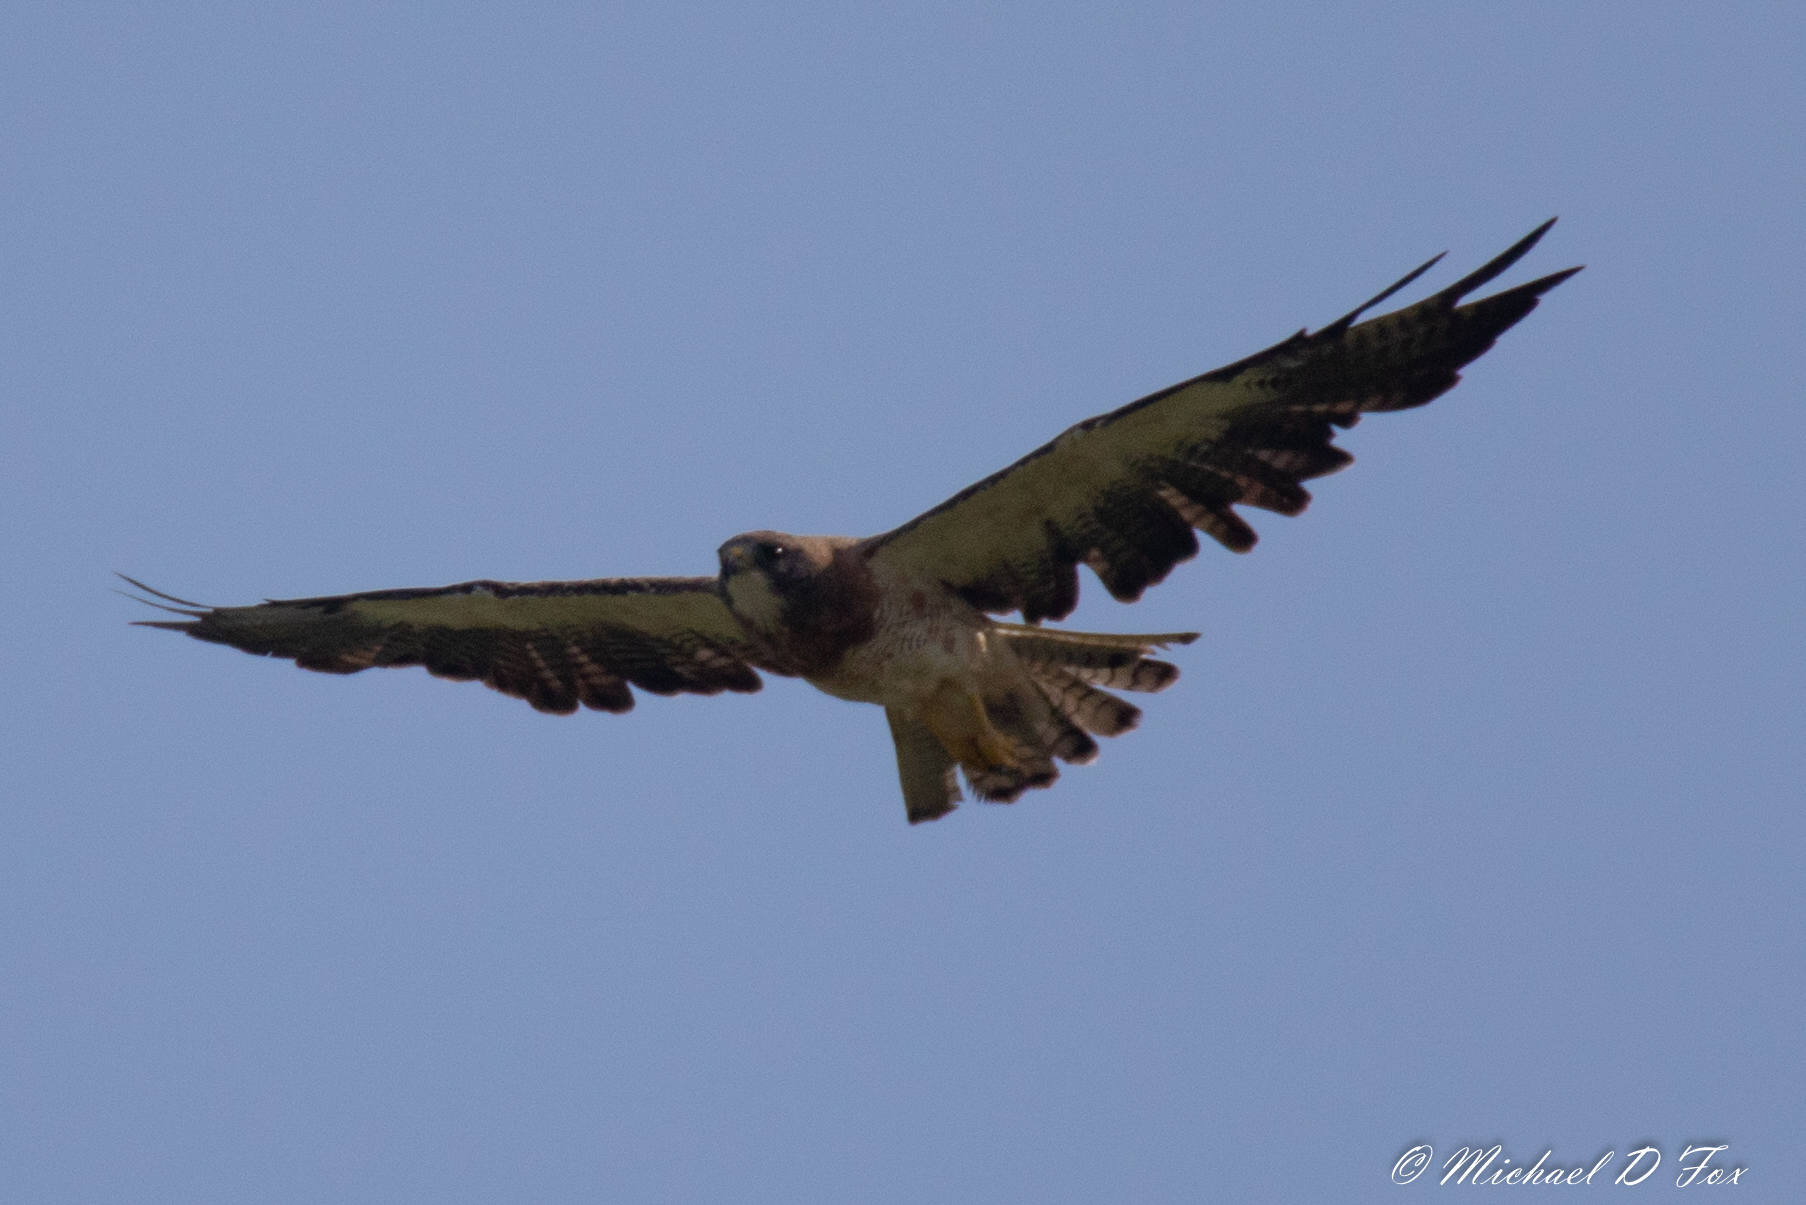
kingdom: Animalia
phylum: Chordata
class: Aves
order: Accipitriformes
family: Accipitridae
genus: Buteo
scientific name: Buteo swainsoni
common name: Swainson's hawk
